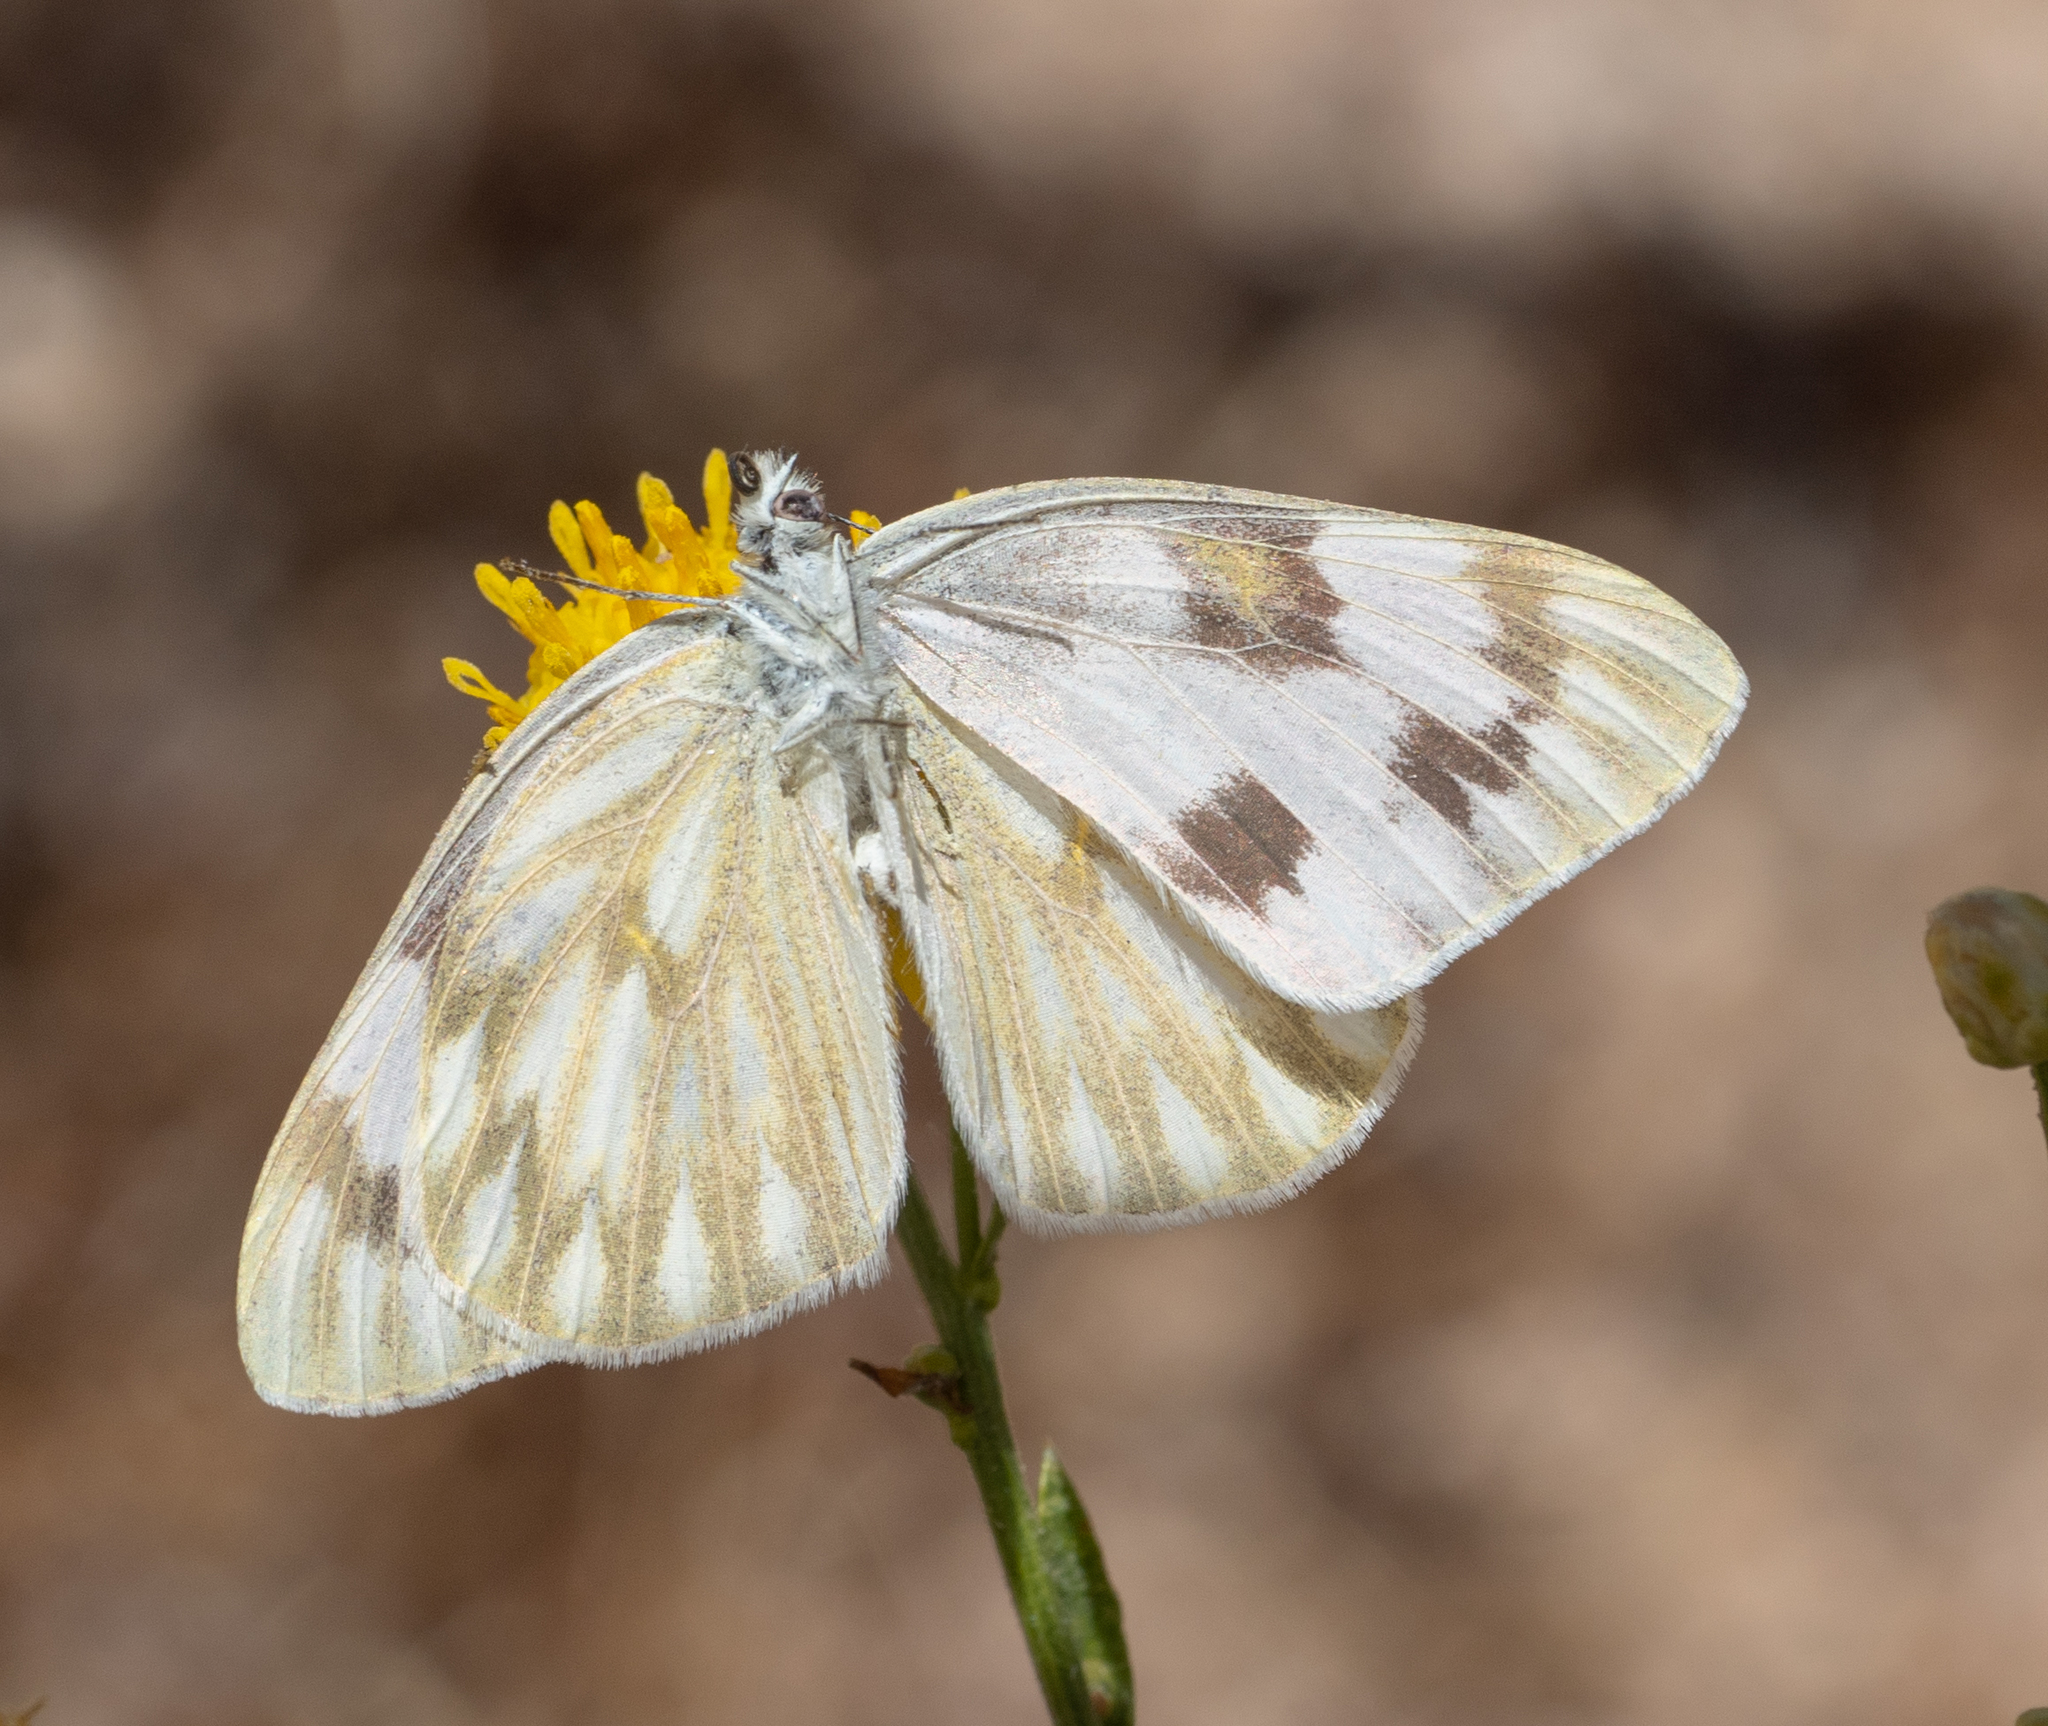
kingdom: Animalia
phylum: Arthropoda
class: Insecta
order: Lepidoptera
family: Pieridae
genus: Pontia
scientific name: Pontia protodice
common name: Checkered white
